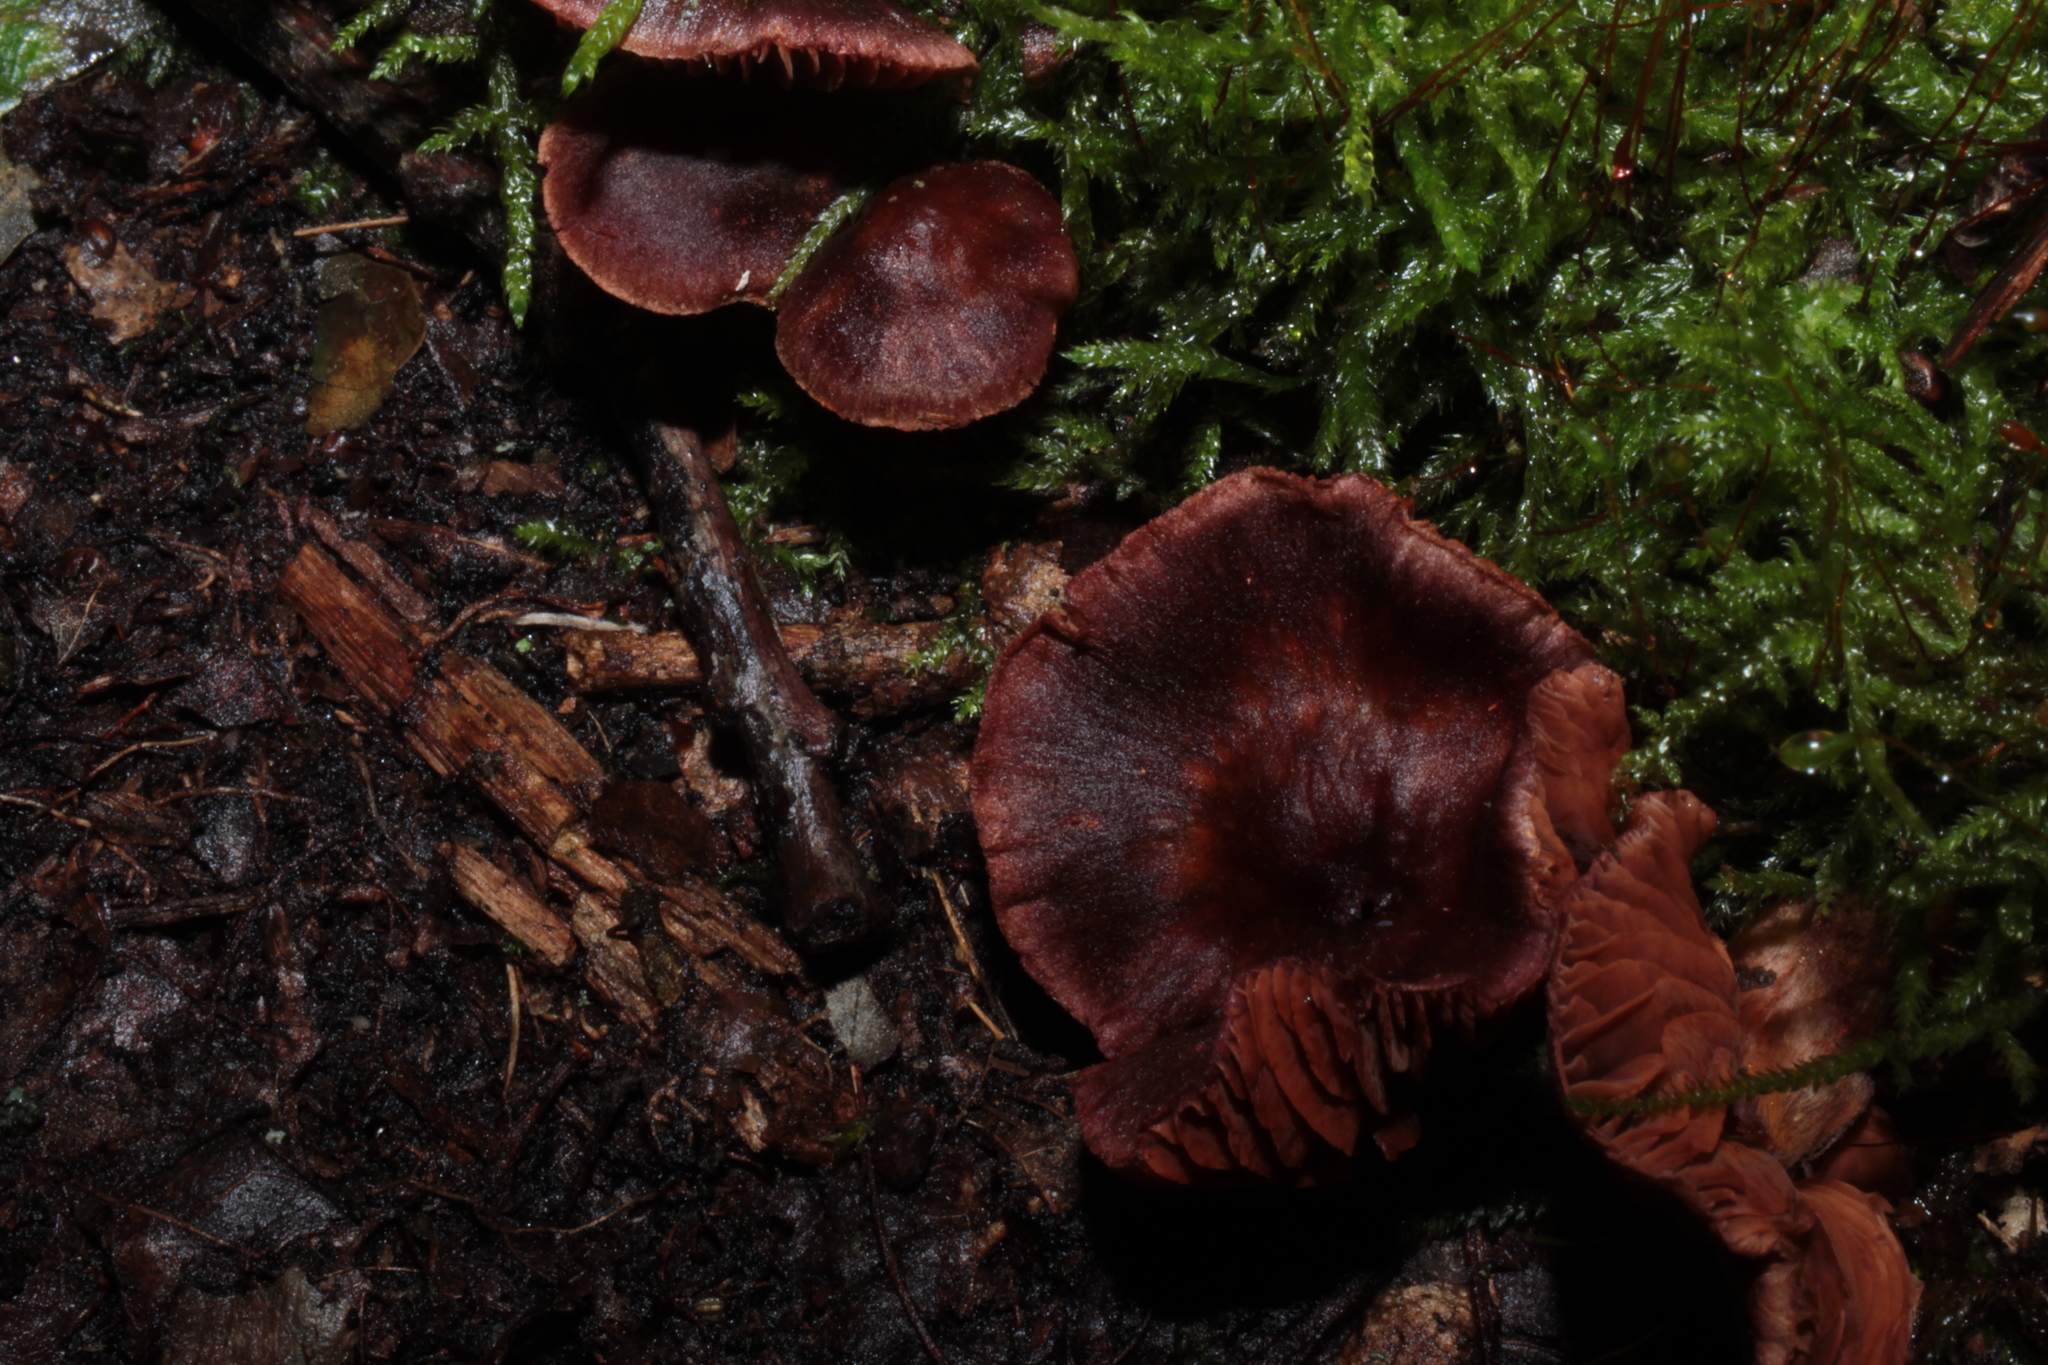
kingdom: Fungi
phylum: Basidiomycota
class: Agaricomycetes
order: Agaricales
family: Cortinariaceae
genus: Cortinarius
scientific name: Cortinarius anthracinus
